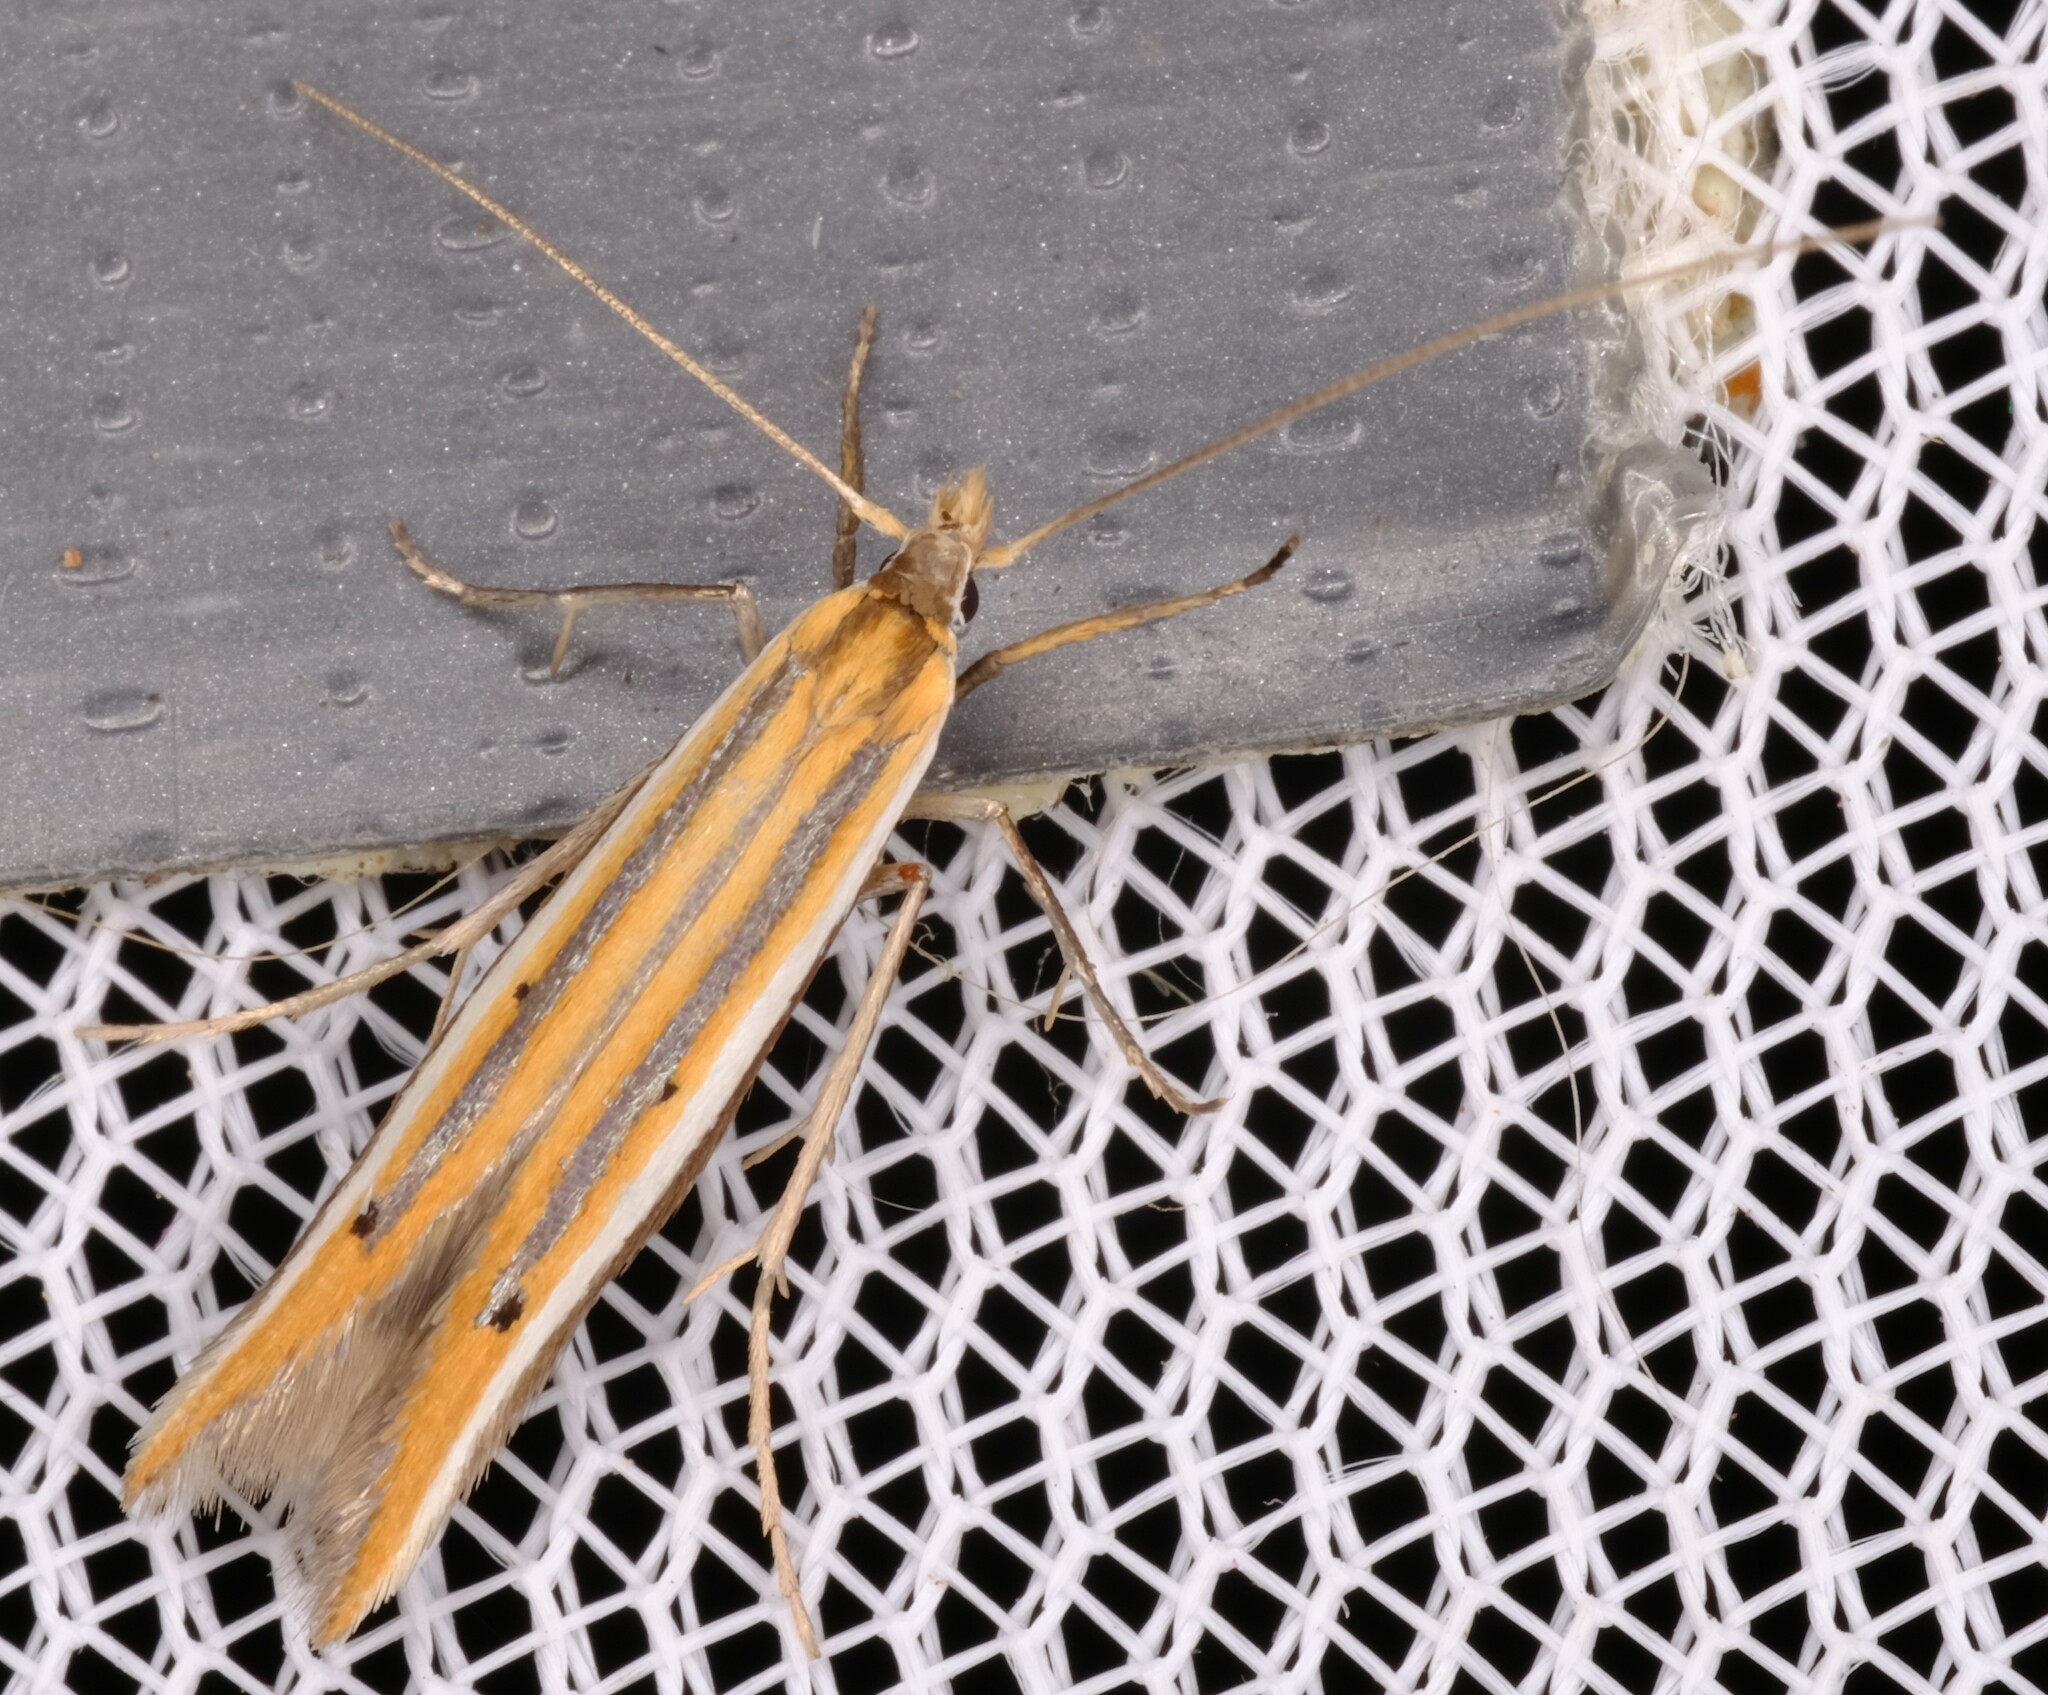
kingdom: Animalia
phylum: Arthropoda
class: Insecta
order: Lepidoptera
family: Batrachedridae
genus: Batrachedra
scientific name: Batrachedra trimeris
